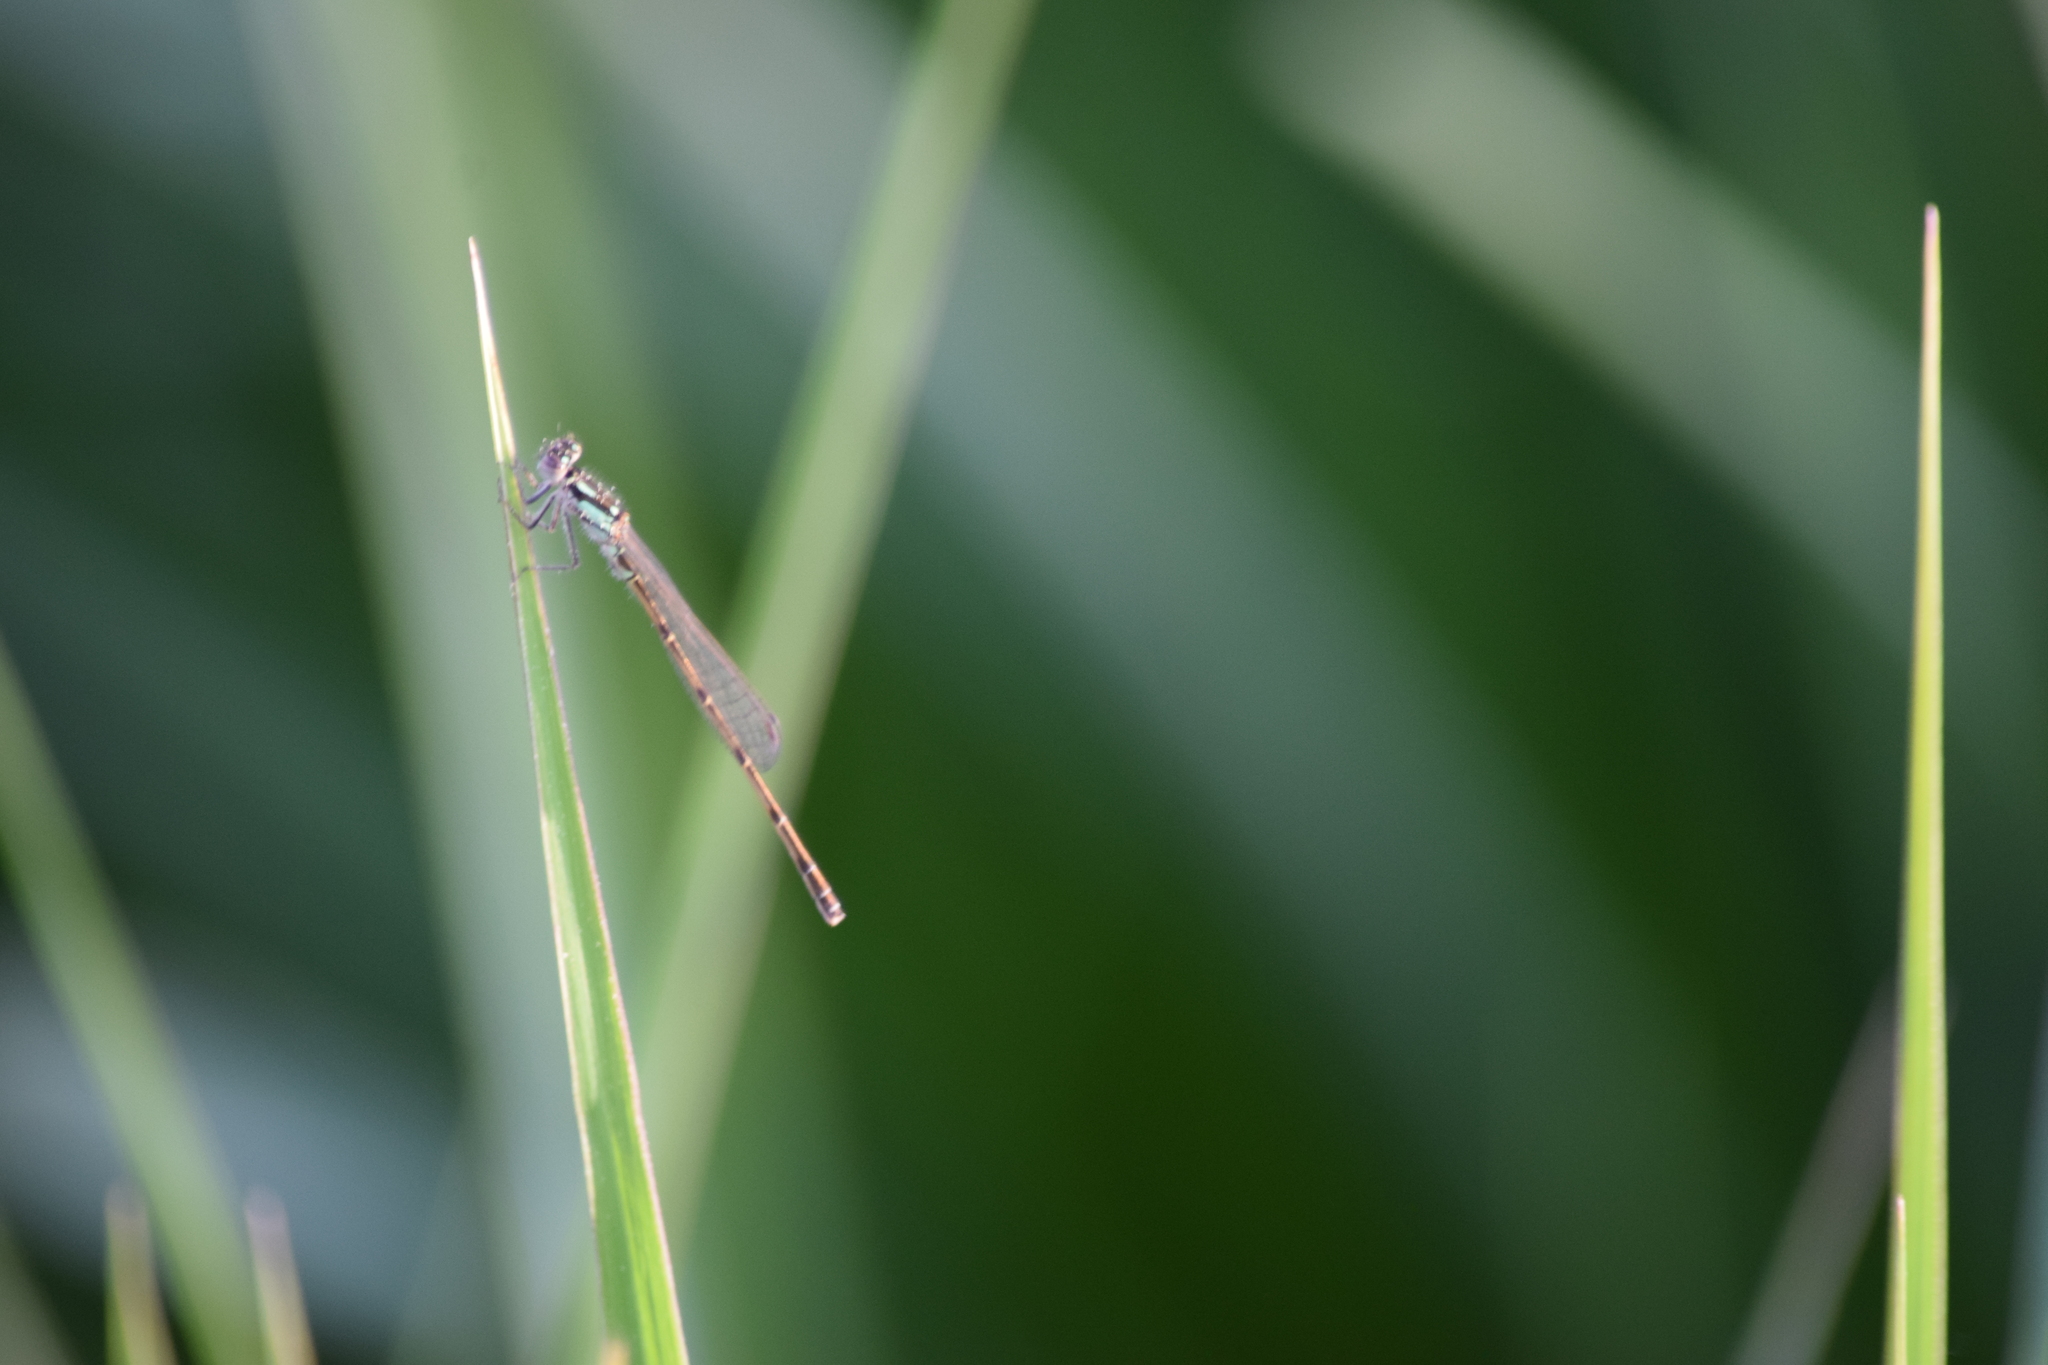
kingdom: Animalia
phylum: Arthropoda
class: Insecta
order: Odonata
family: Coenagrionidae
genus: Ischnura
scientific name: Ischnura posita
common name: Fragile forktail
